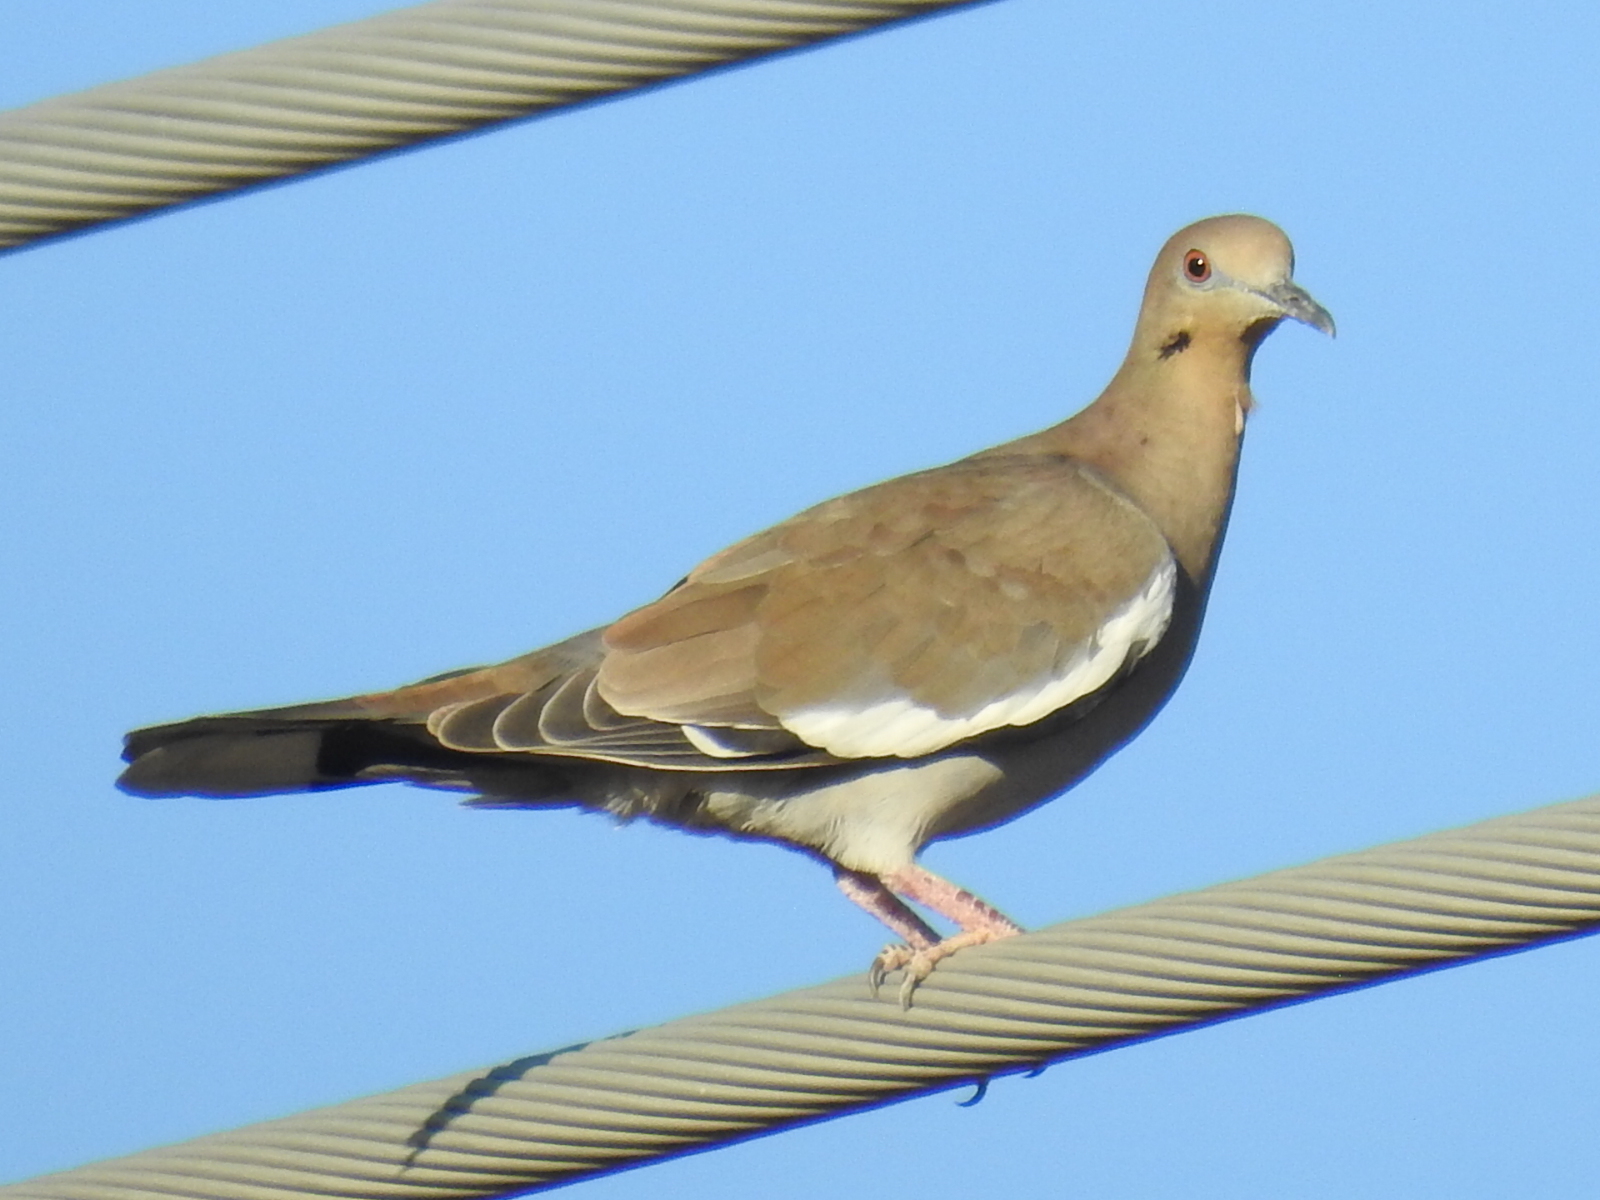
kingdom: Animalia
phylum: Chordata
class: Aves
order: Columbiformes
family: Columbidae
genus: Zenaida
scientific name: Zenaida asiatica
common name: White-winged dove
